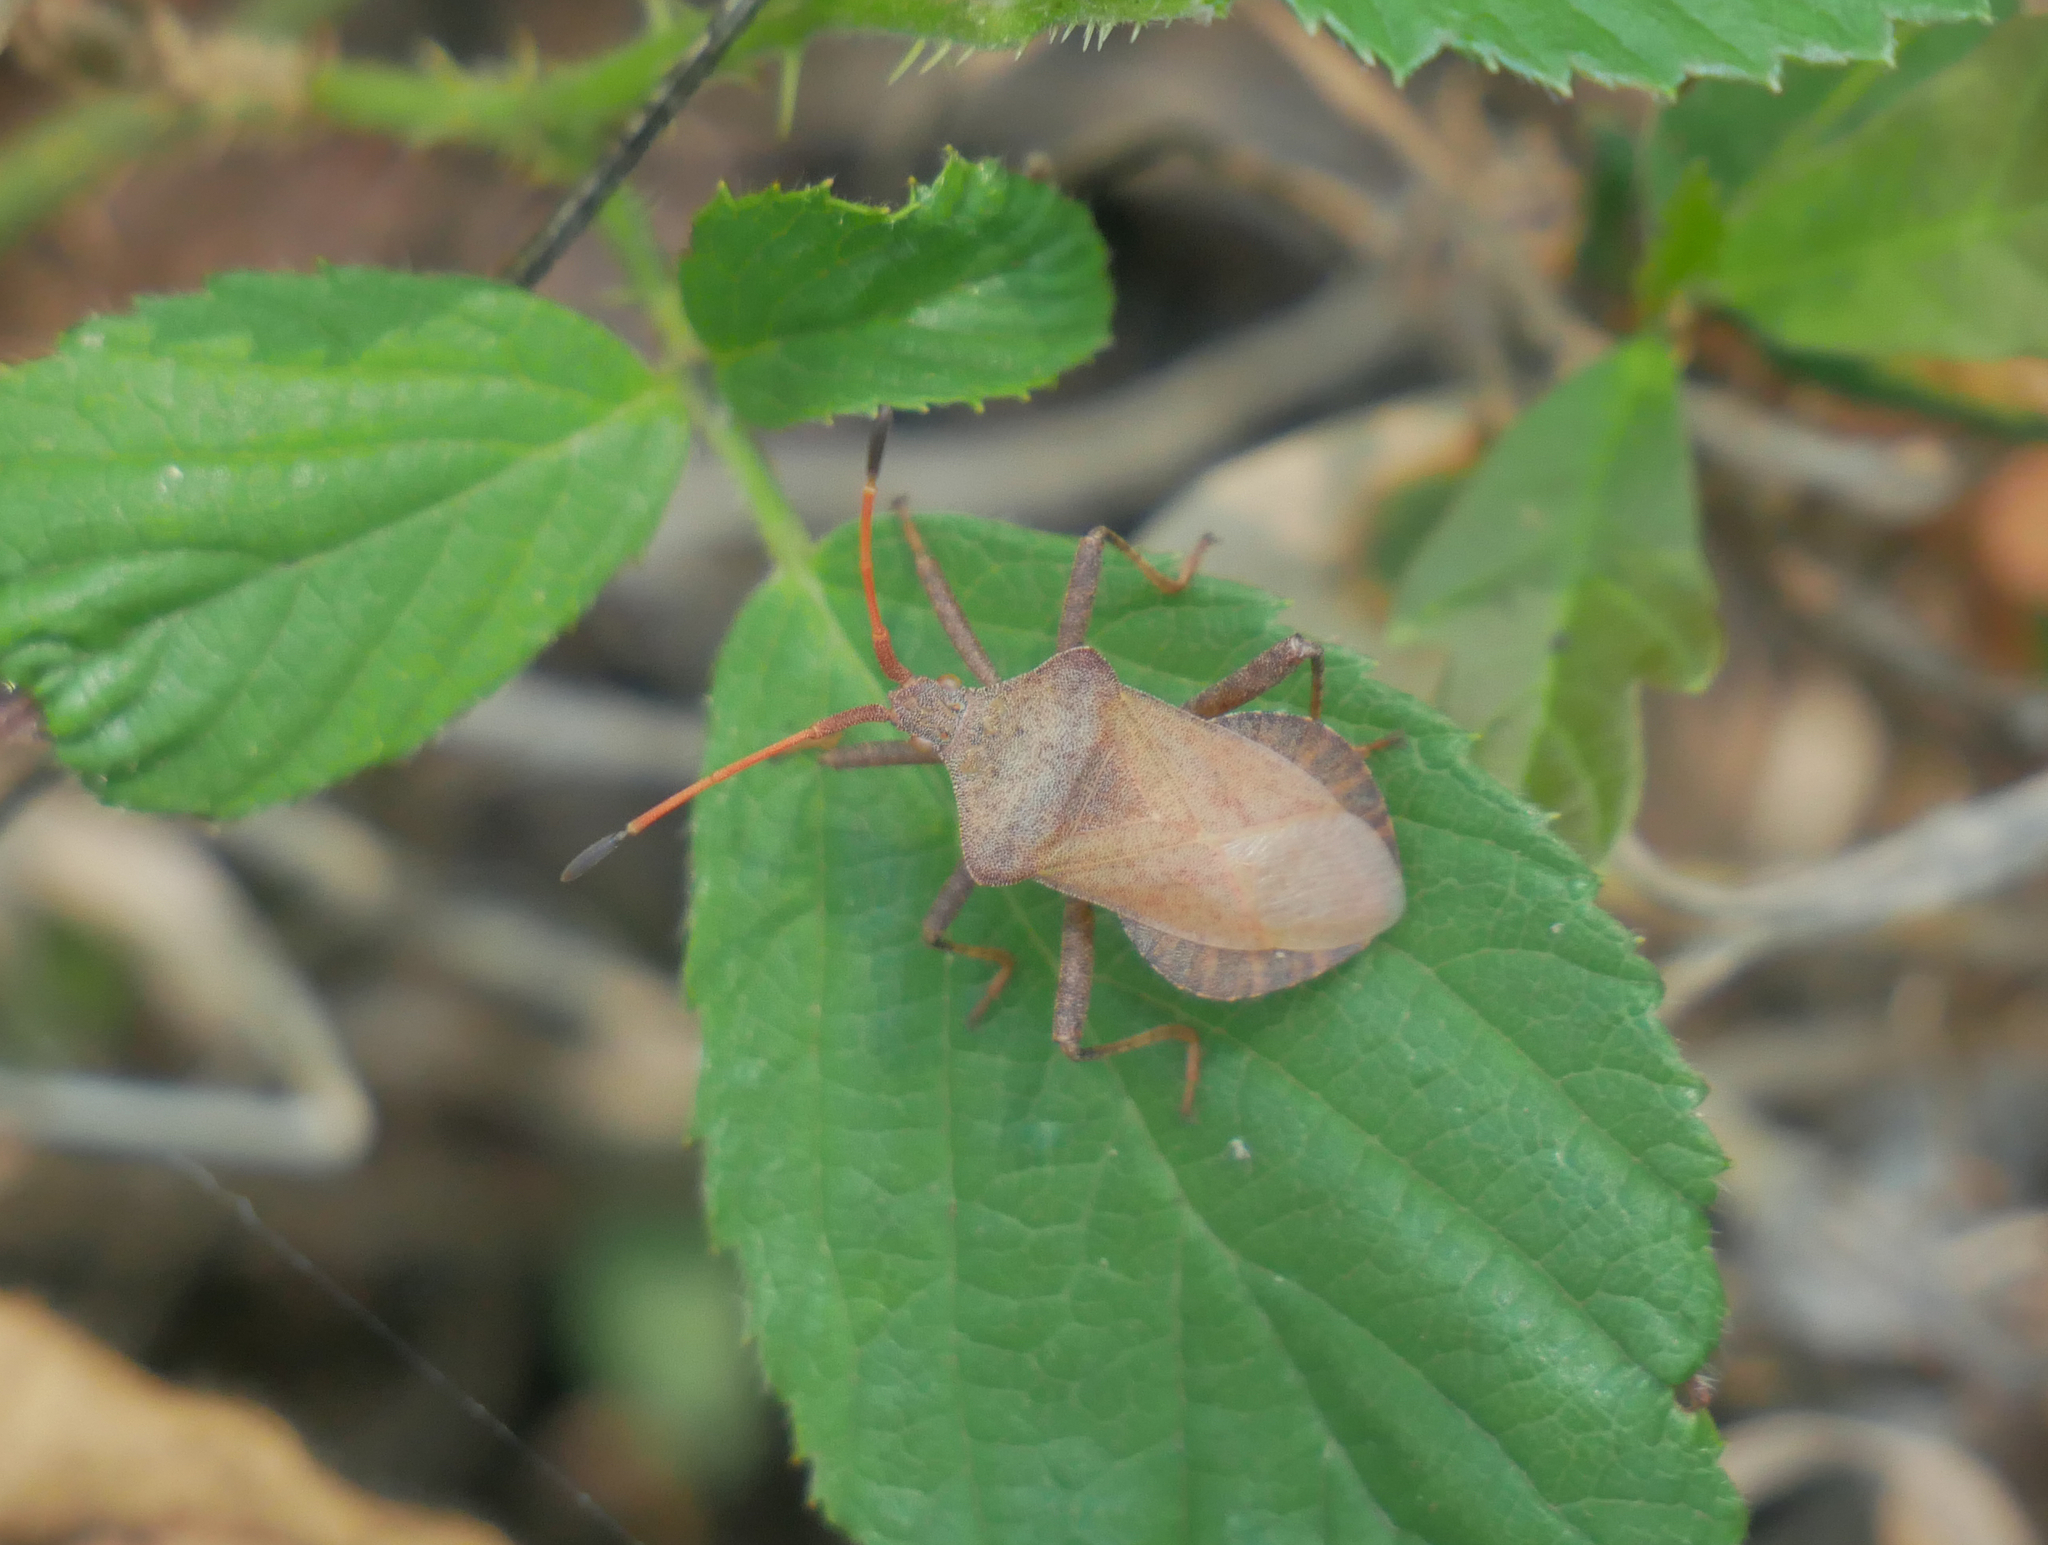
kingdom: Animalia
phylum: Arthropoda
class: Insecta
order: Hemiptera
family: Coreidae
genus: Coreus
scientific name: Coreus marginatus
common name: Dock bug
